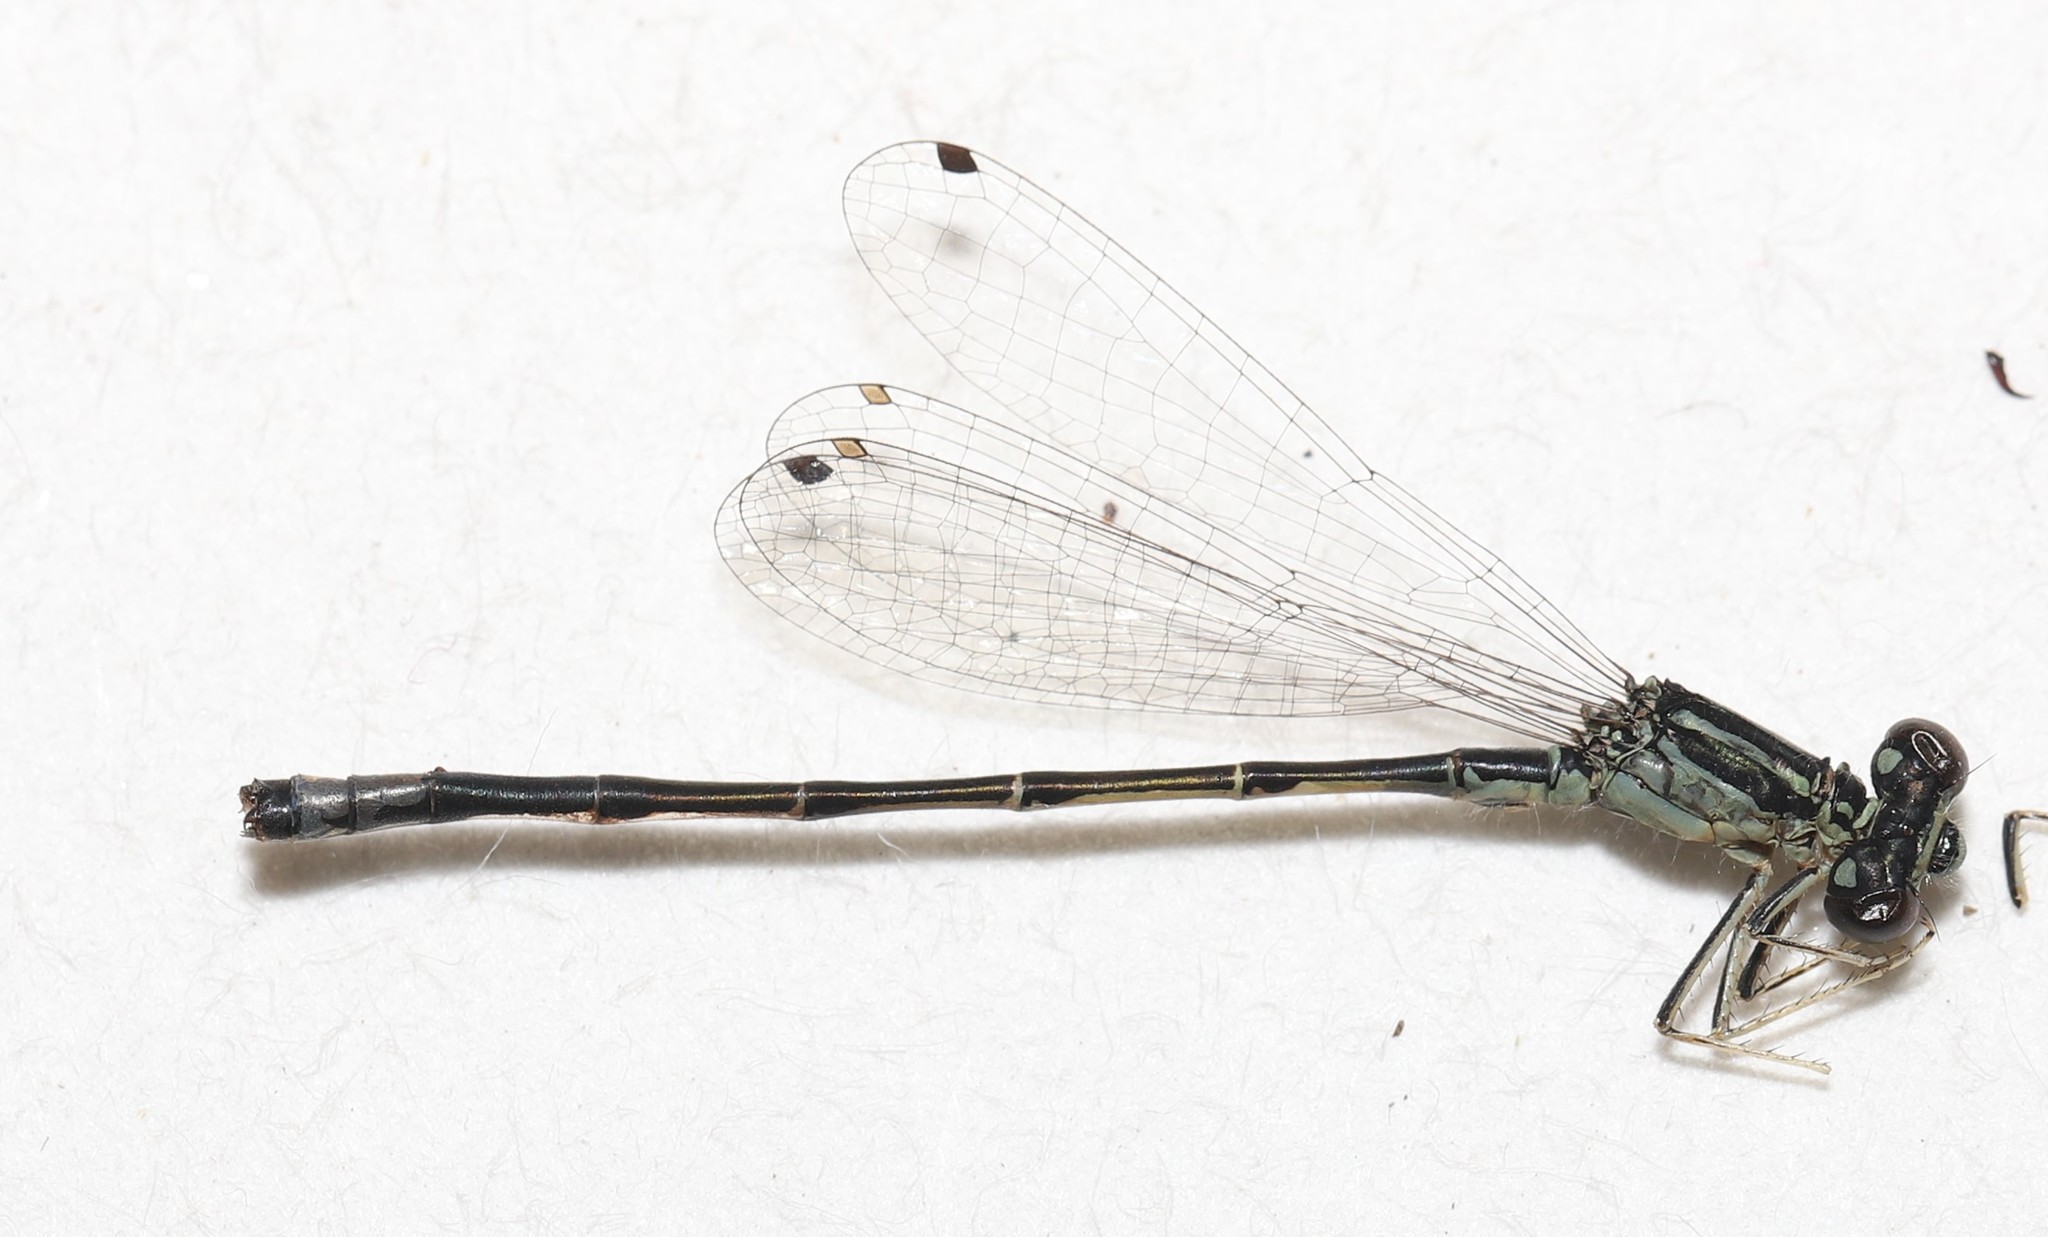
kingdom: Animalia
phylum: Arthropoda
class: Insecta
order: Odonata
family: Coenagrionidae
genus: Ischnura
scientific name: Ischnura perparva
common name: Western forktail
